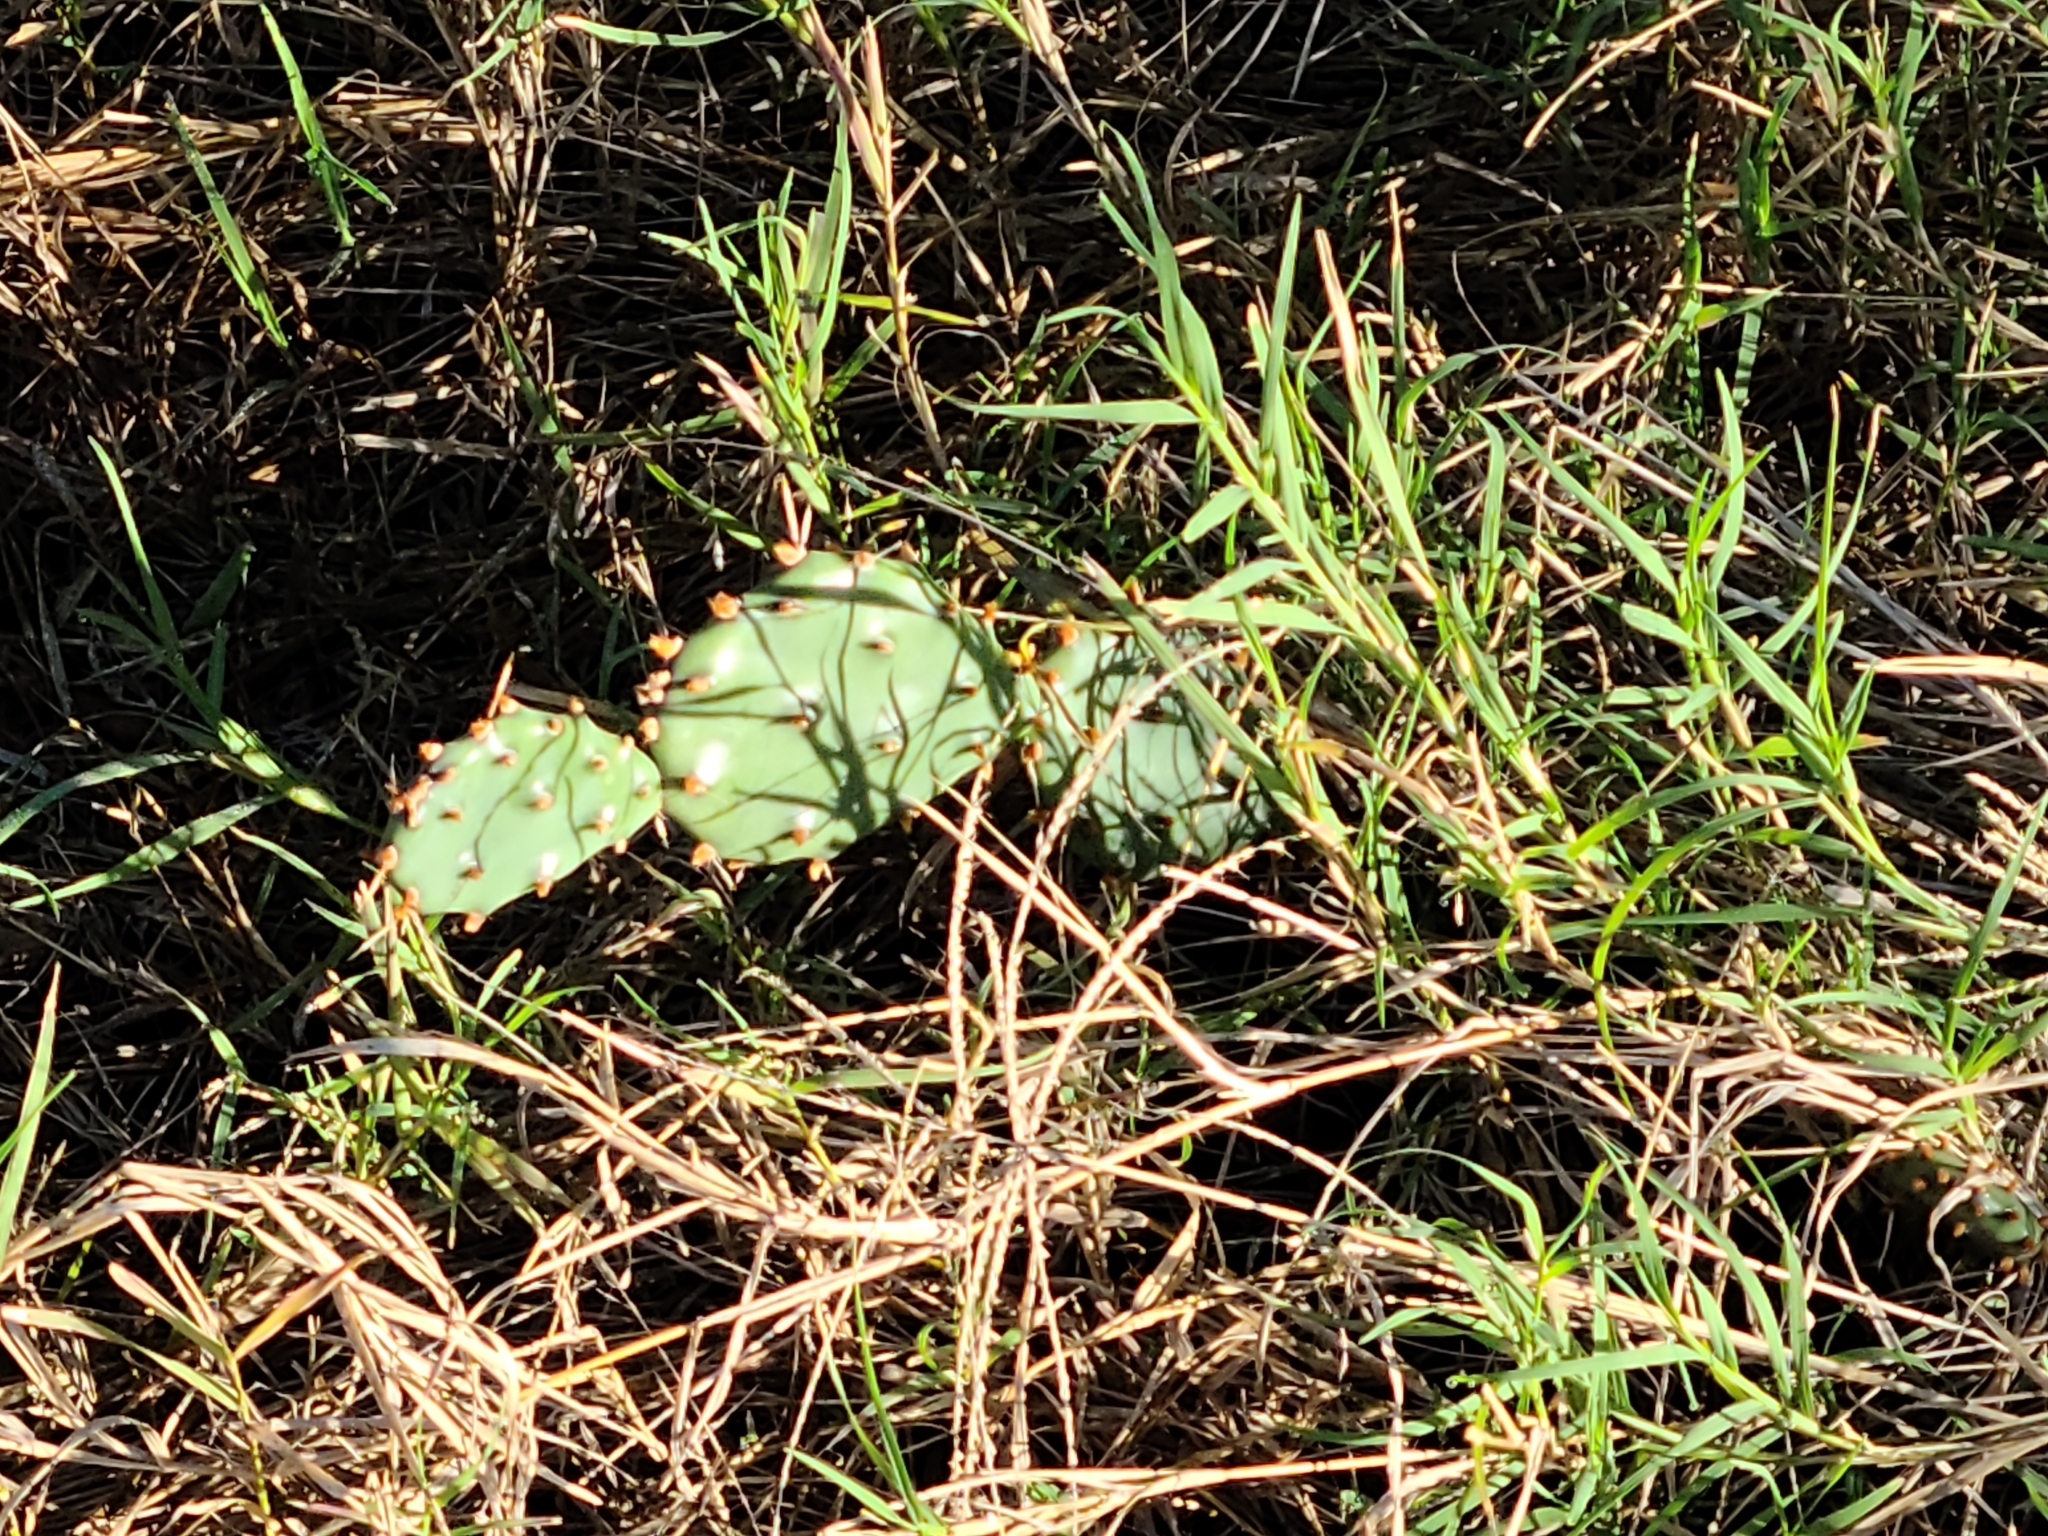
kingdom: Plantae
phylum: Tracheophyta
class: Magnoliopsida
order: Caryophyllales
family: Cactaceae
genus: Opuntia
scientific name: Opuntia macrorhiza
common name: Grassland pricklypear
